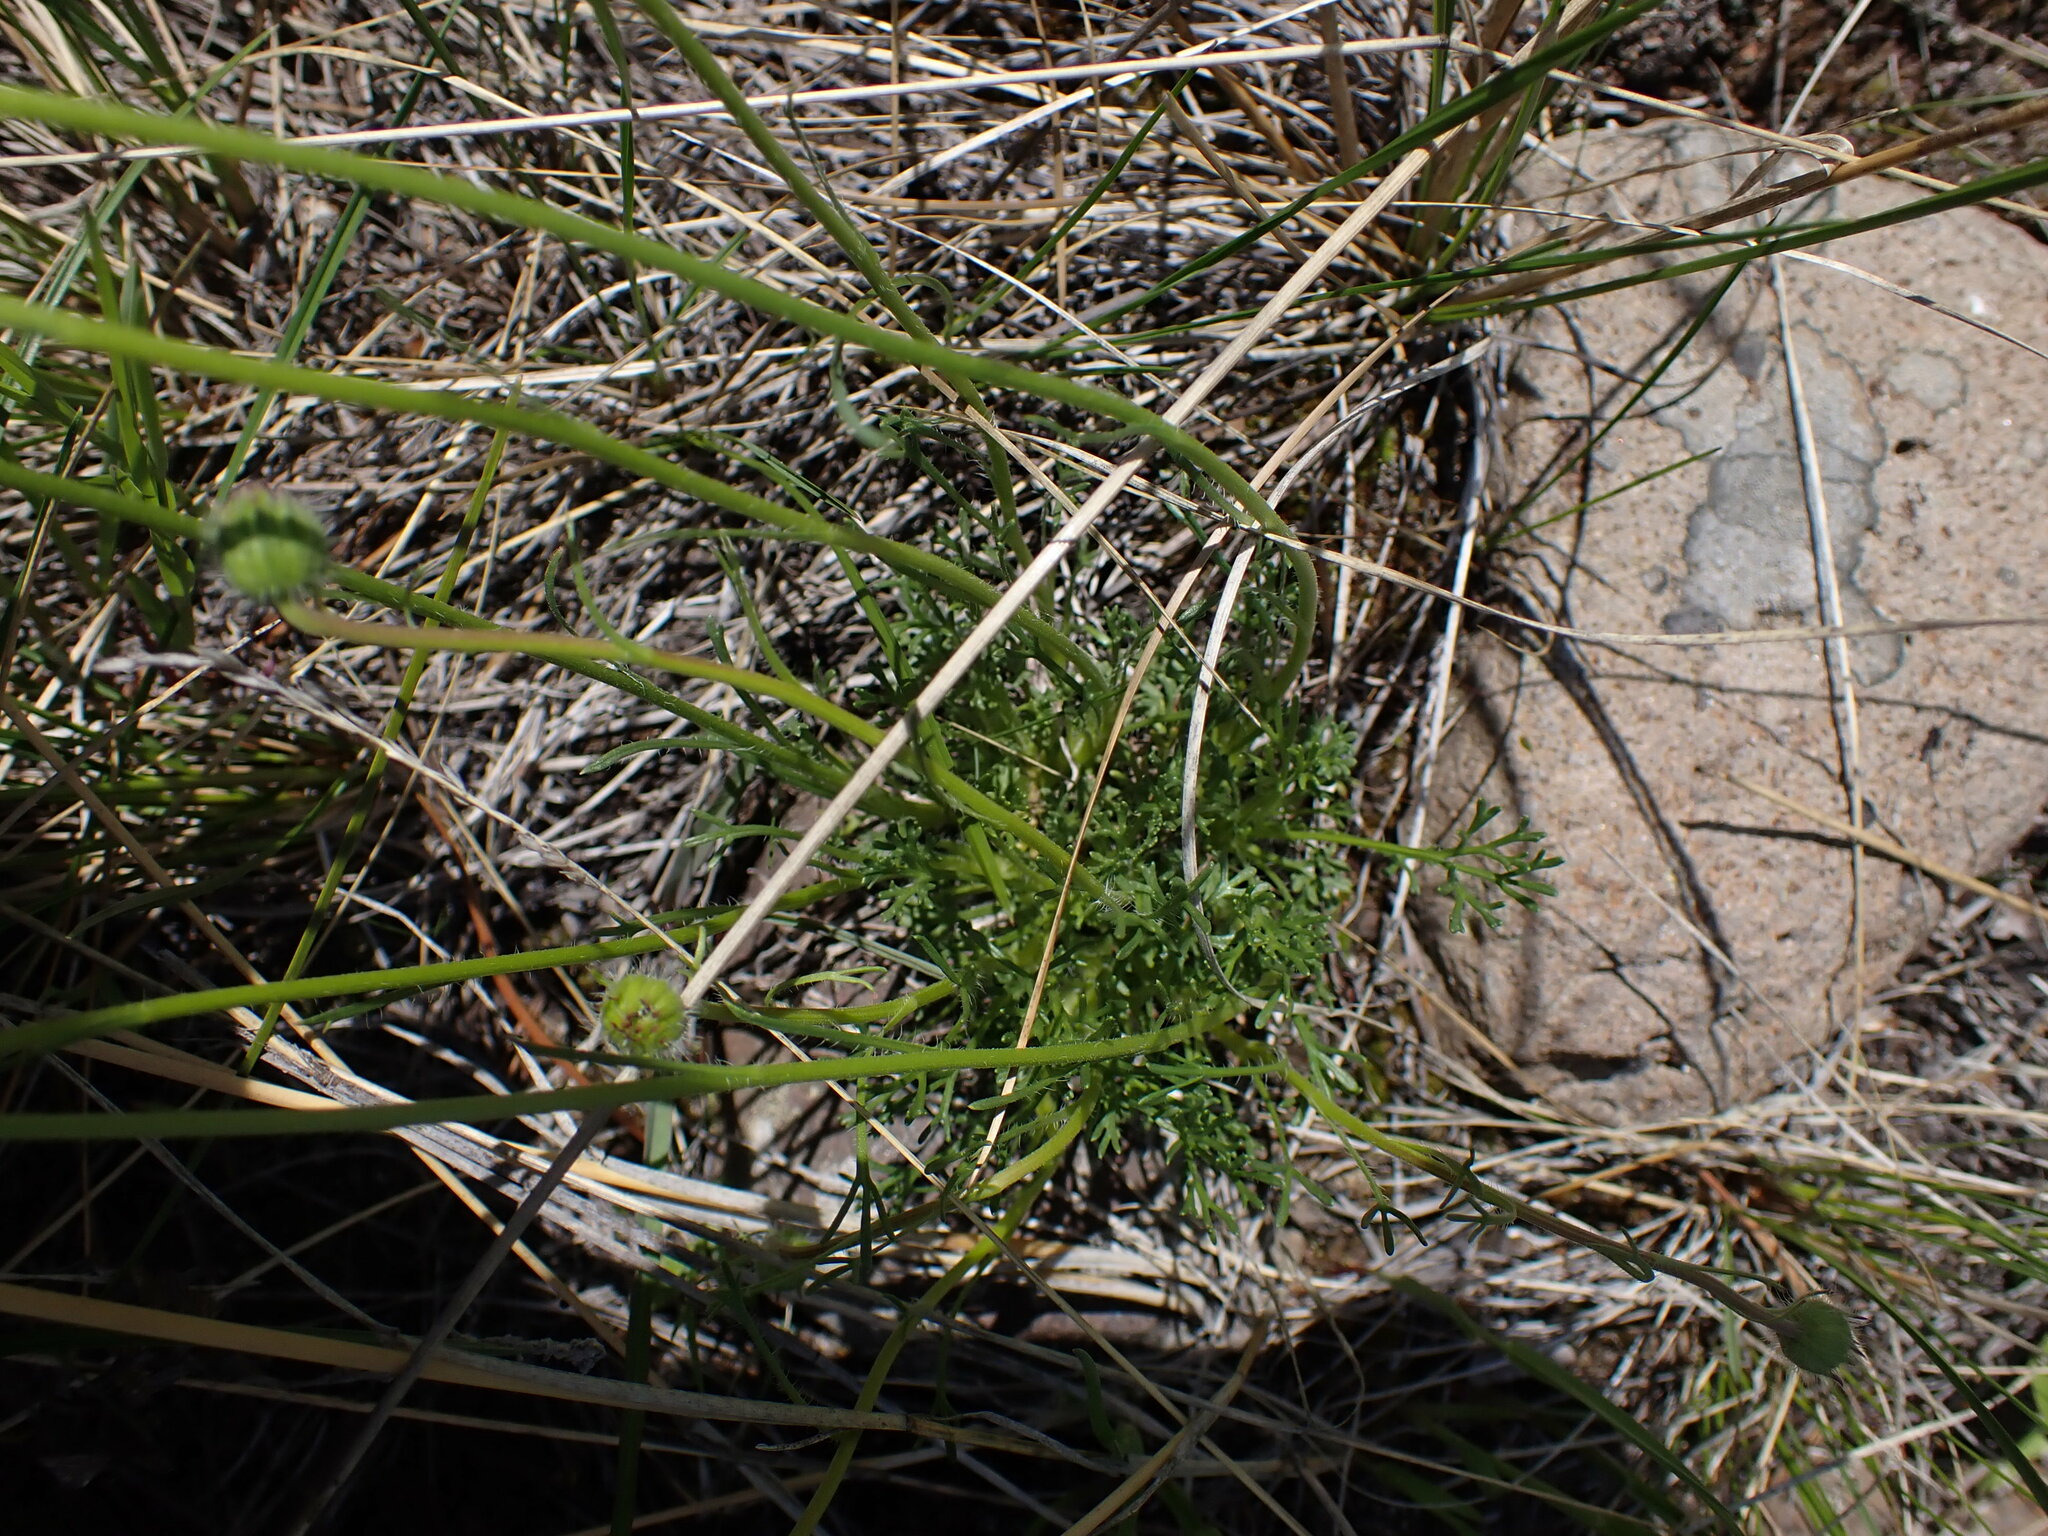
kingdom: Plantae
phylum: Tracheophyta
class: Magnoliopsida
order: Asterales
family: Asteraceae
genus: Erigeron
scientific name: Erigeron compositus
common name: Dwarf mountain fleabane
